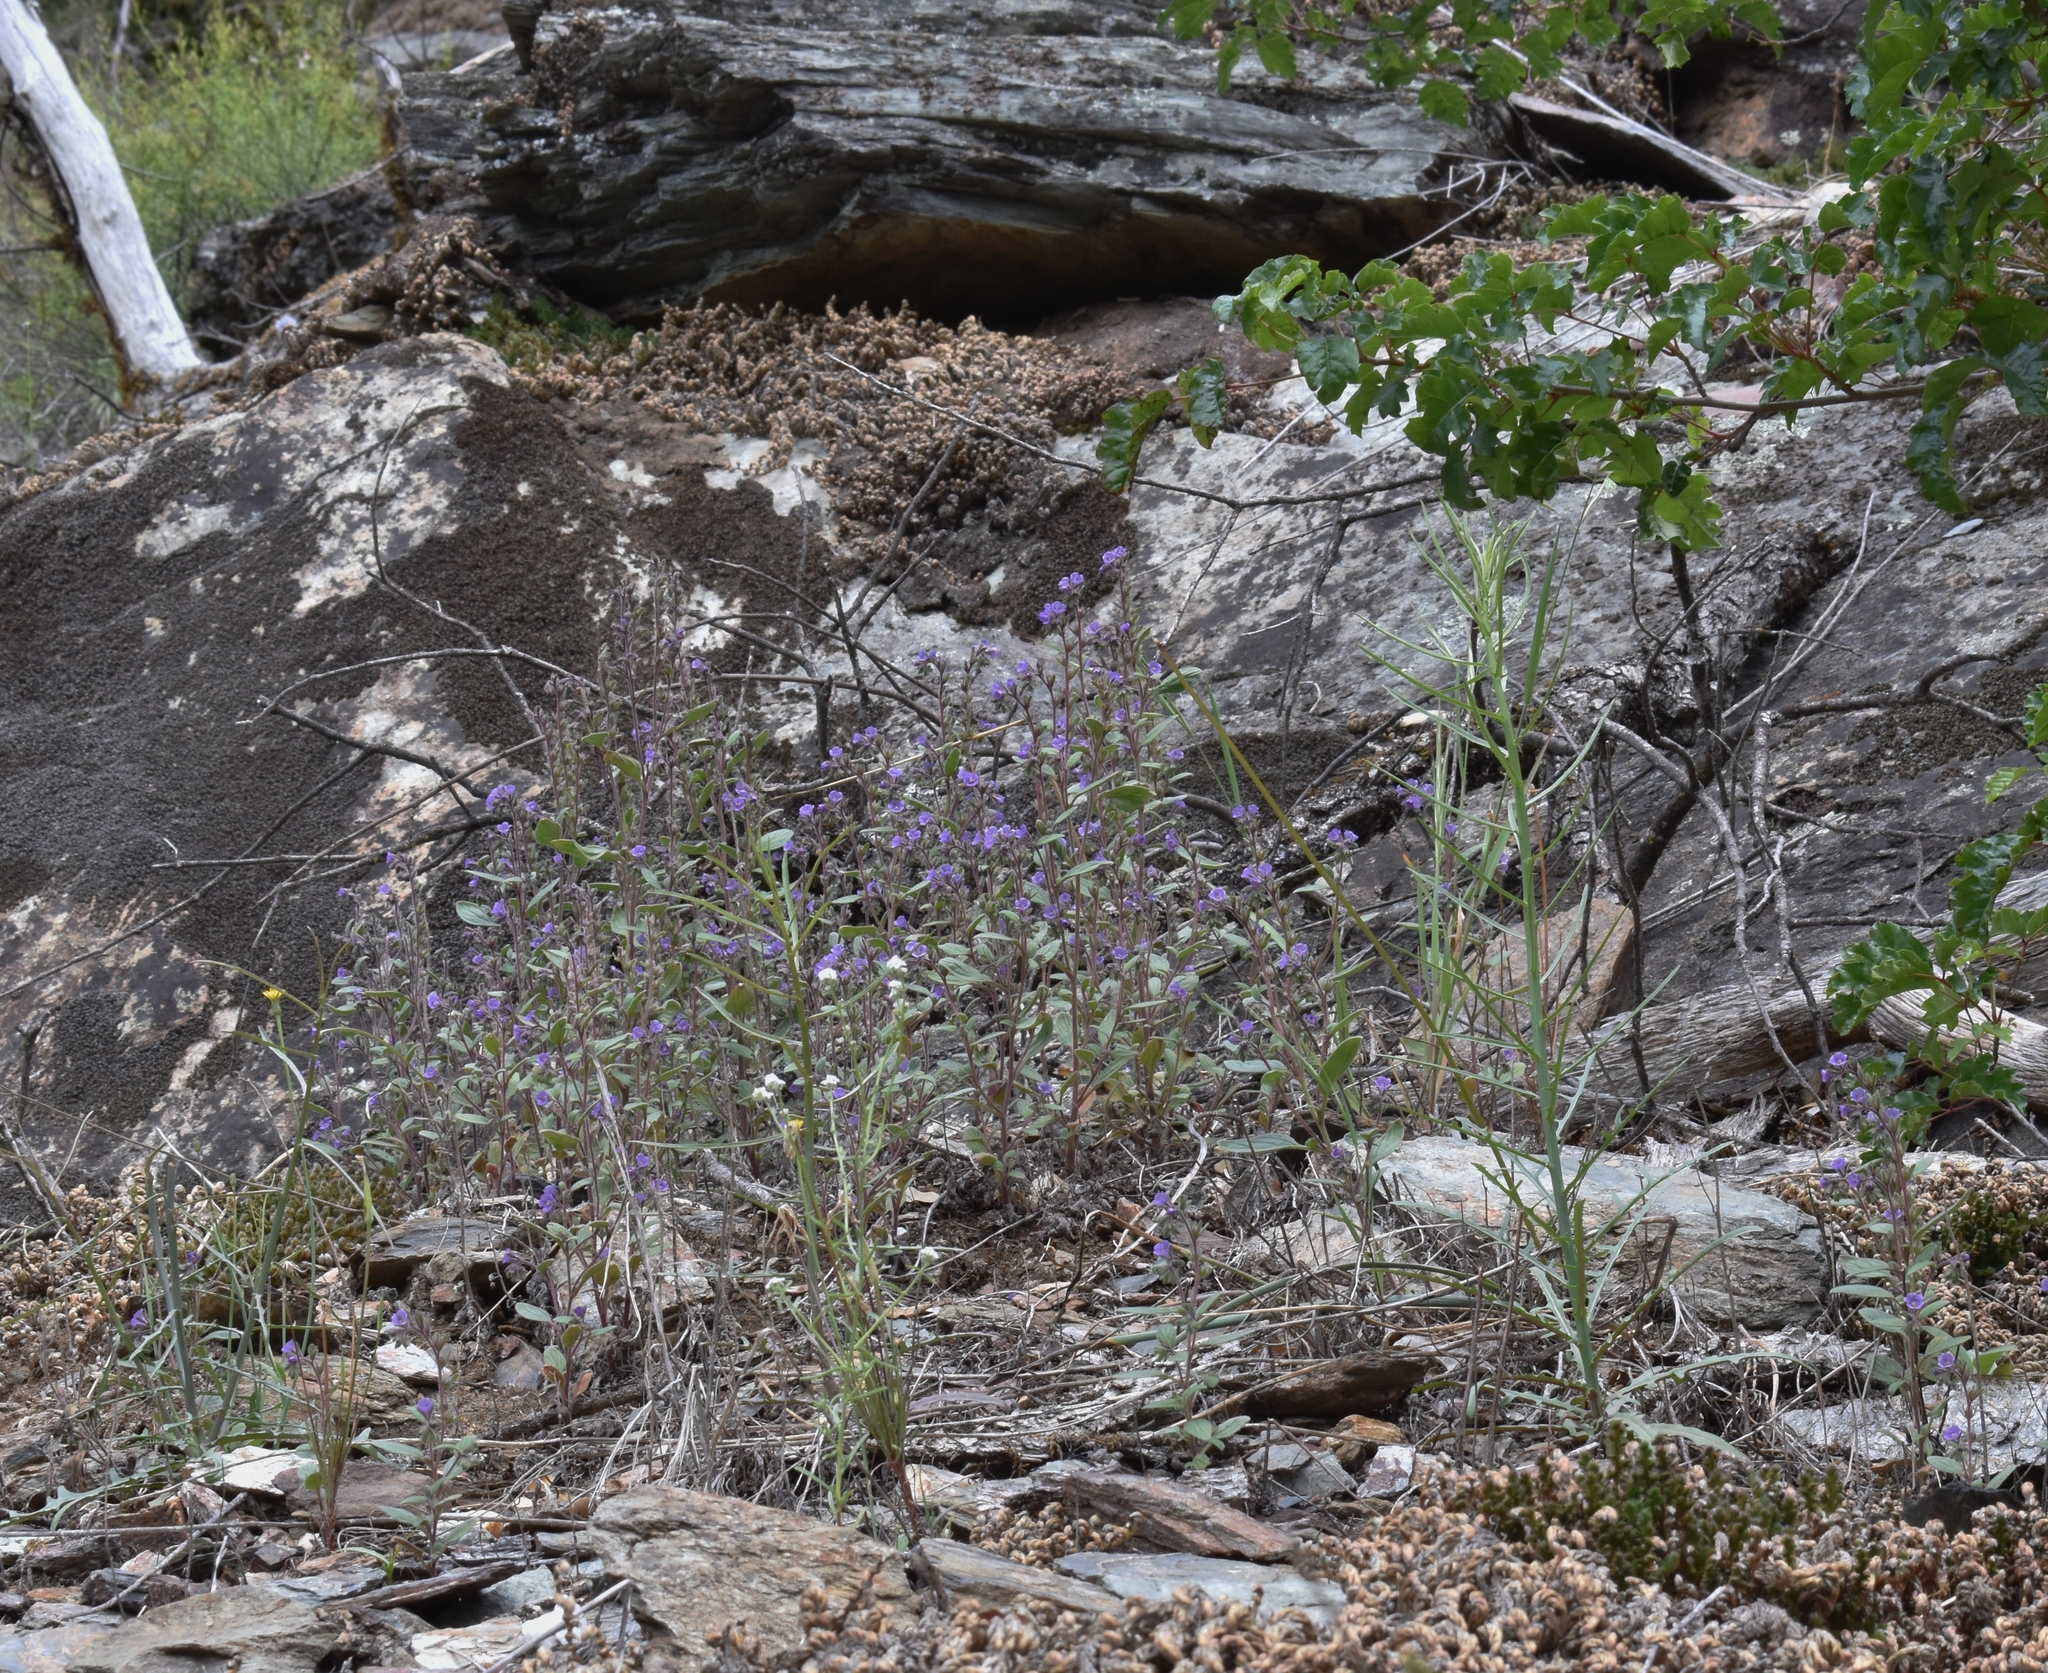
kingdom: Plantae
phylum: Tracheophyta
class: Magnoliopsida
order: Boraginales
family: Hydrophyllaceae
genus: Phacelia
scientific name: Phacelia vallicola
